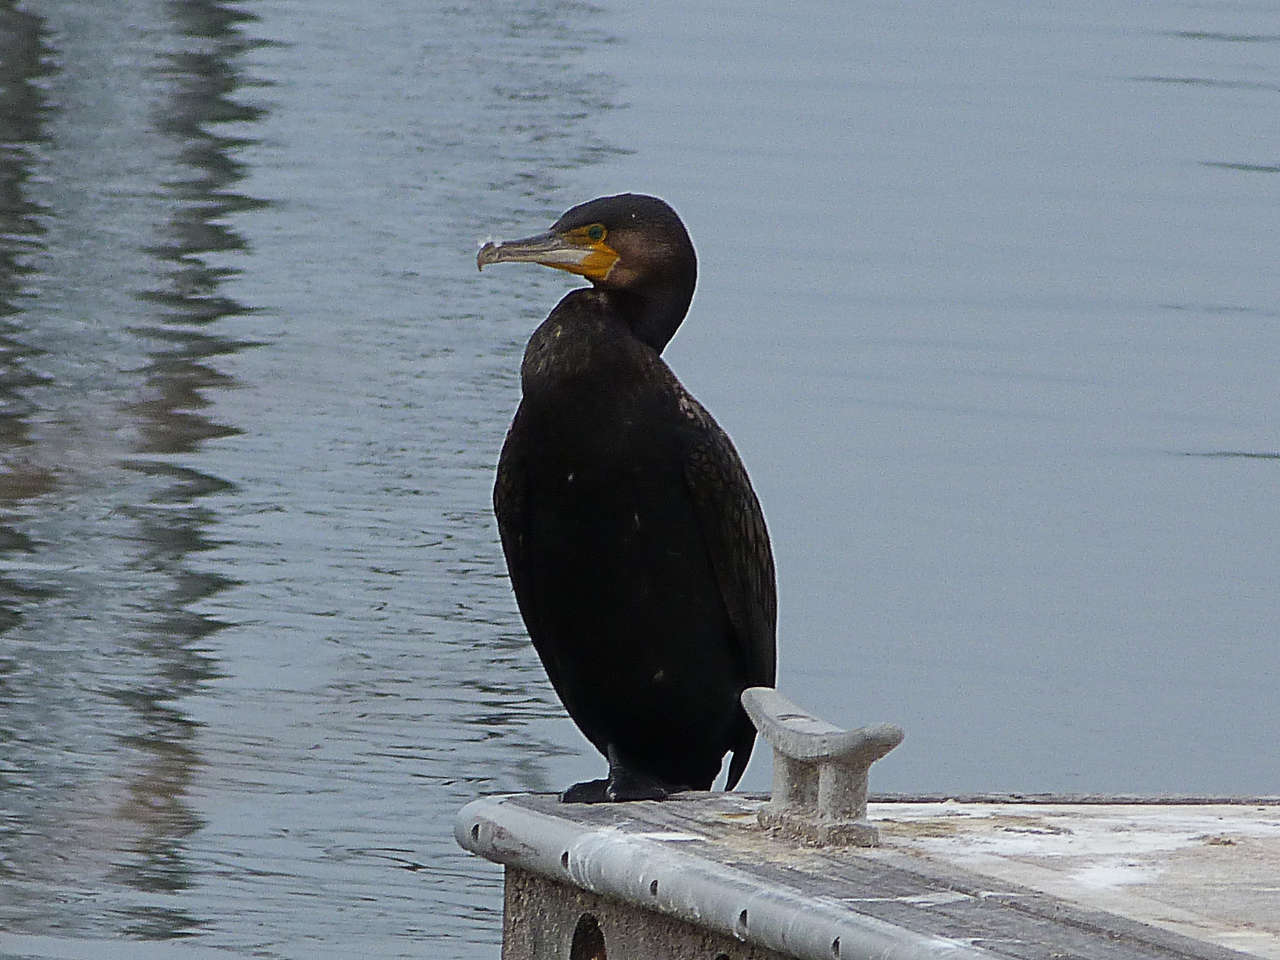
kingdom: Animalia
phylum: Chordata
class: Aves
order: Suliformes
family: Phalacrocoracidae
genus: Phalacrocorax
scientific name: Phalacrocorax carbo
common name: Great cormorant
